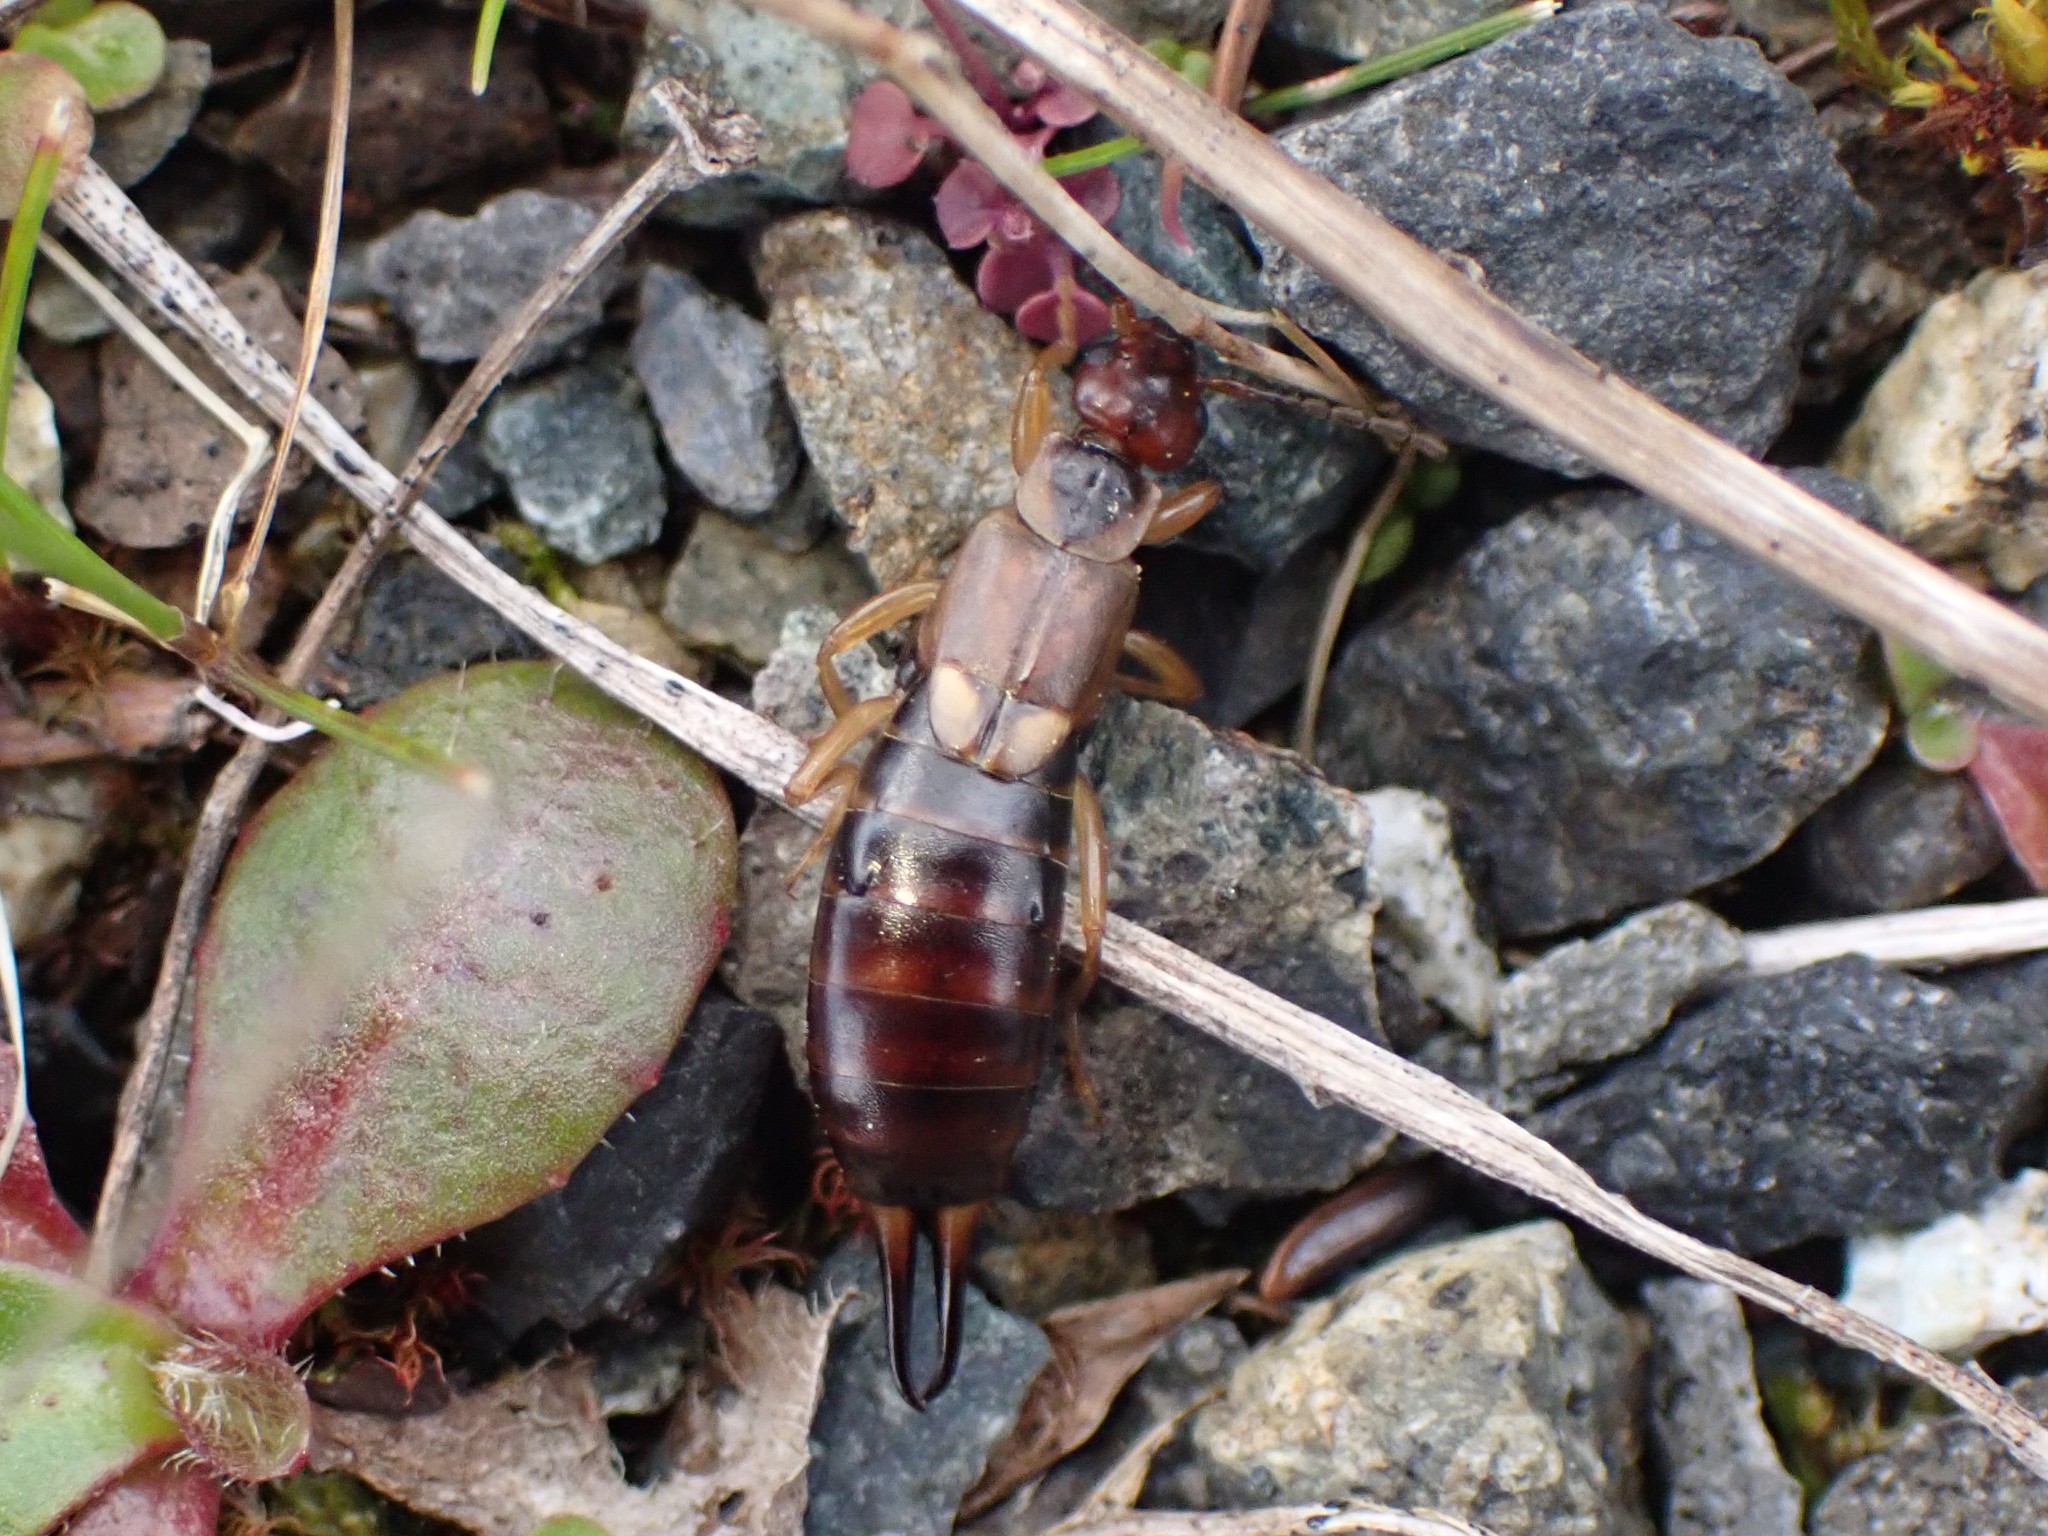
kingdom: Animalia
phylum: Arthropoda
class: Insecta
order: Dermaptera
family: Forficulidae
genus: Forficula
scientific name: Forficula
